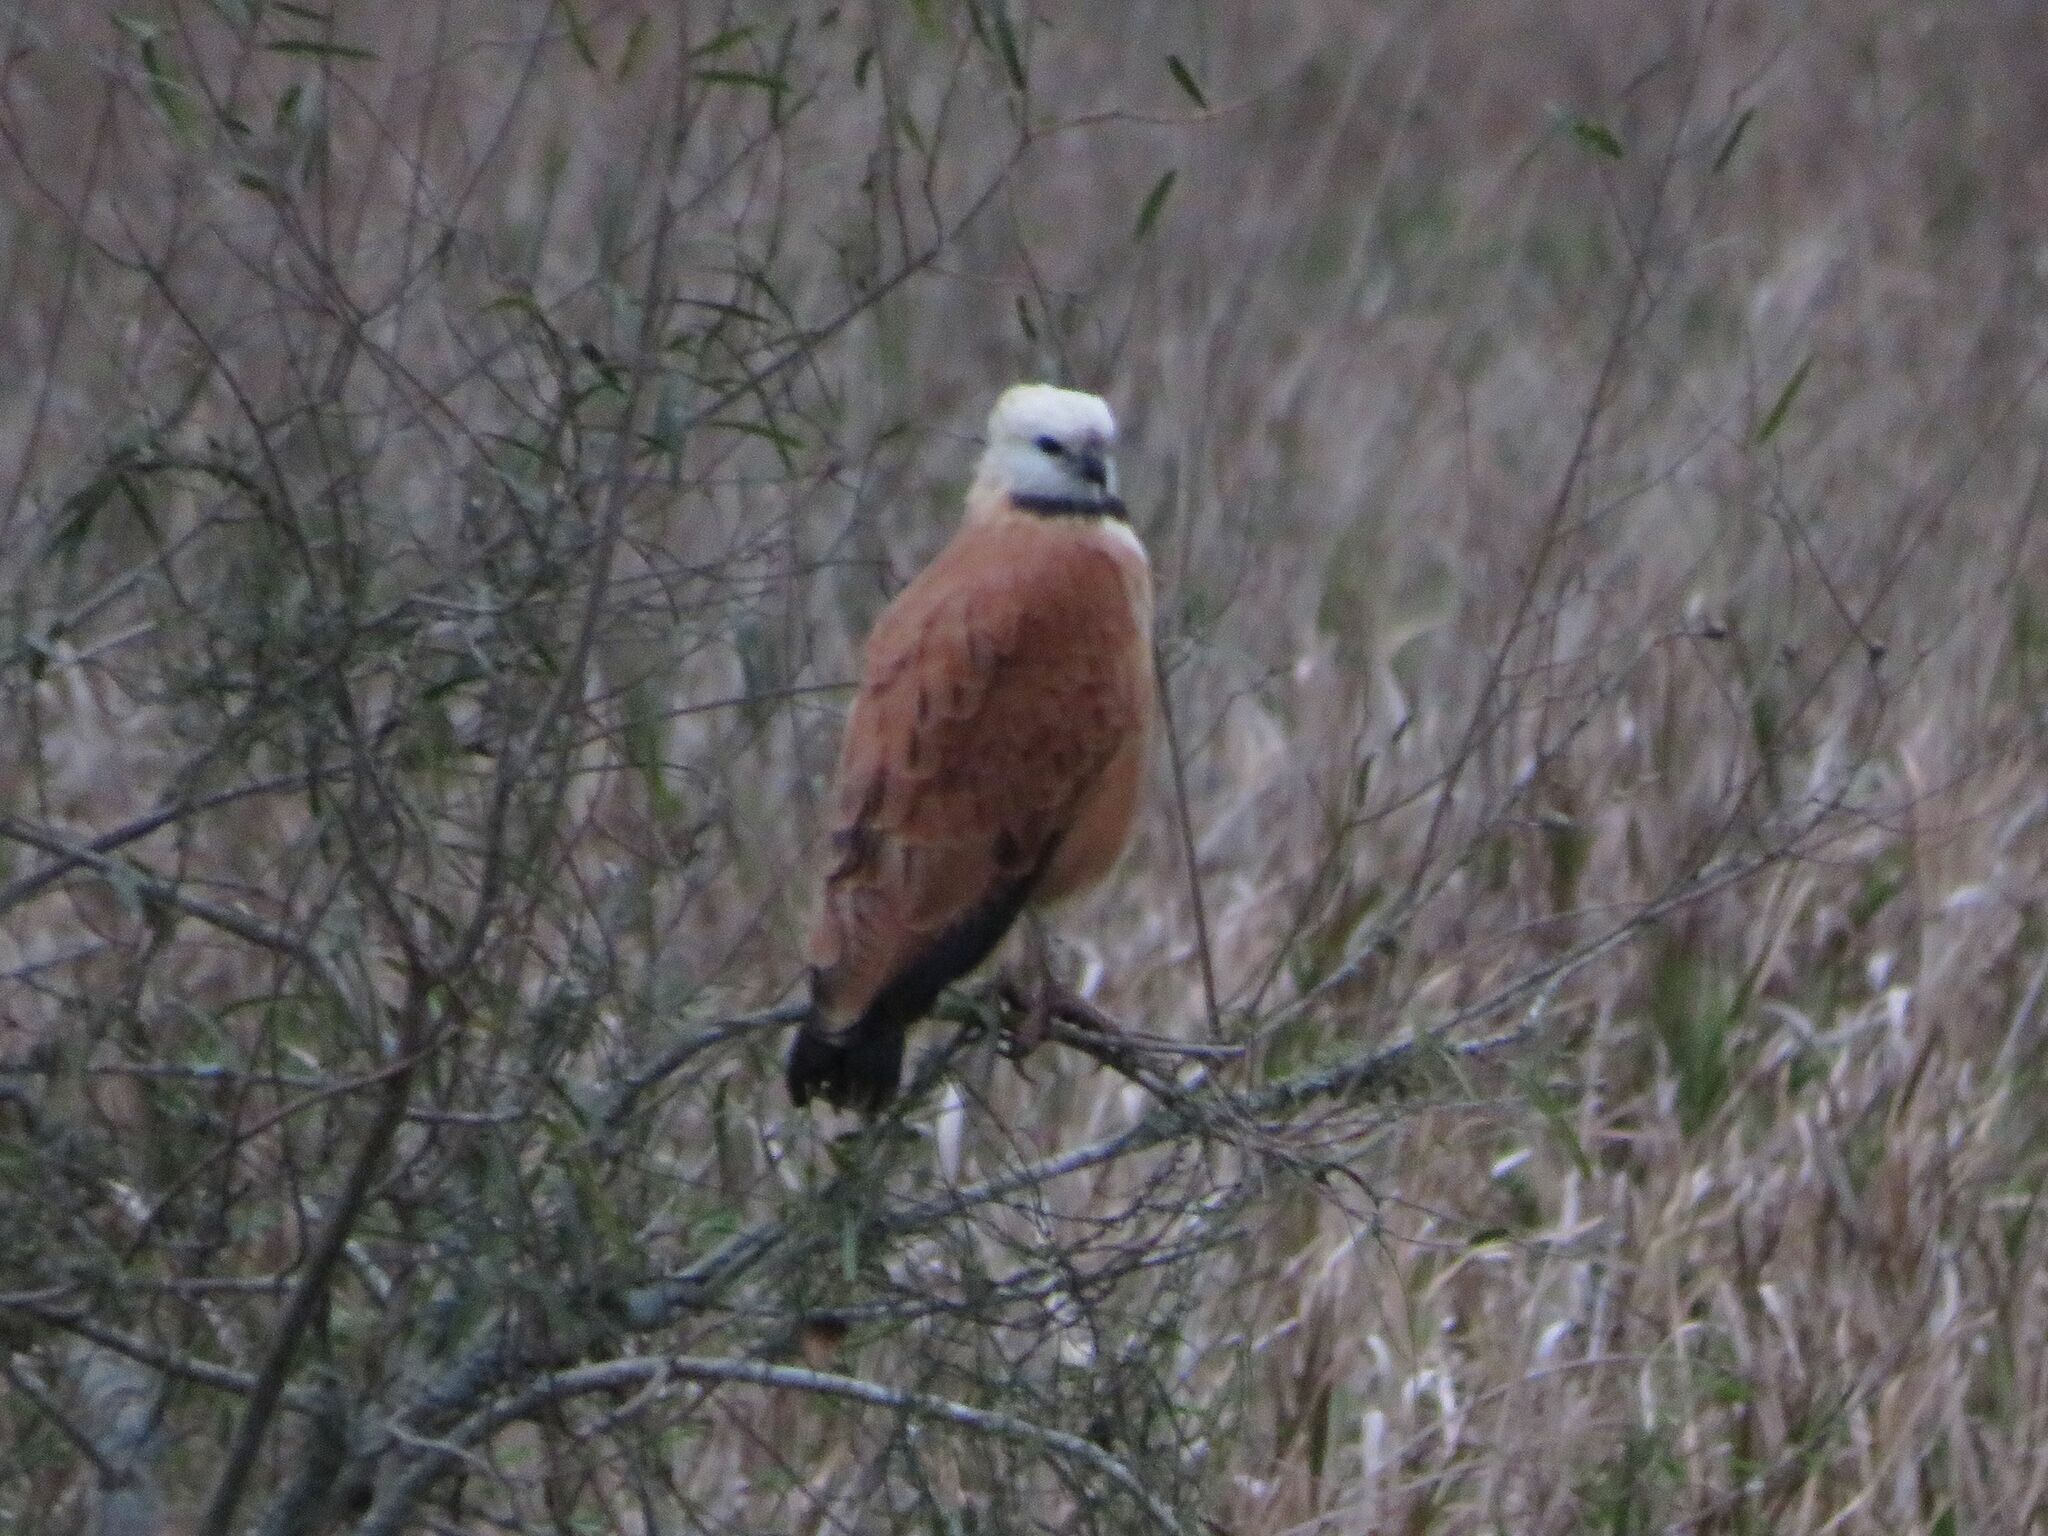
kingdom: Animalia
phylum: Chordata
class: Aves
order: Accipitriformes
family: Accipitridae
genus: Busarellus
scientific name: Busarellus nigricollis
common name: Black-collared hawk
